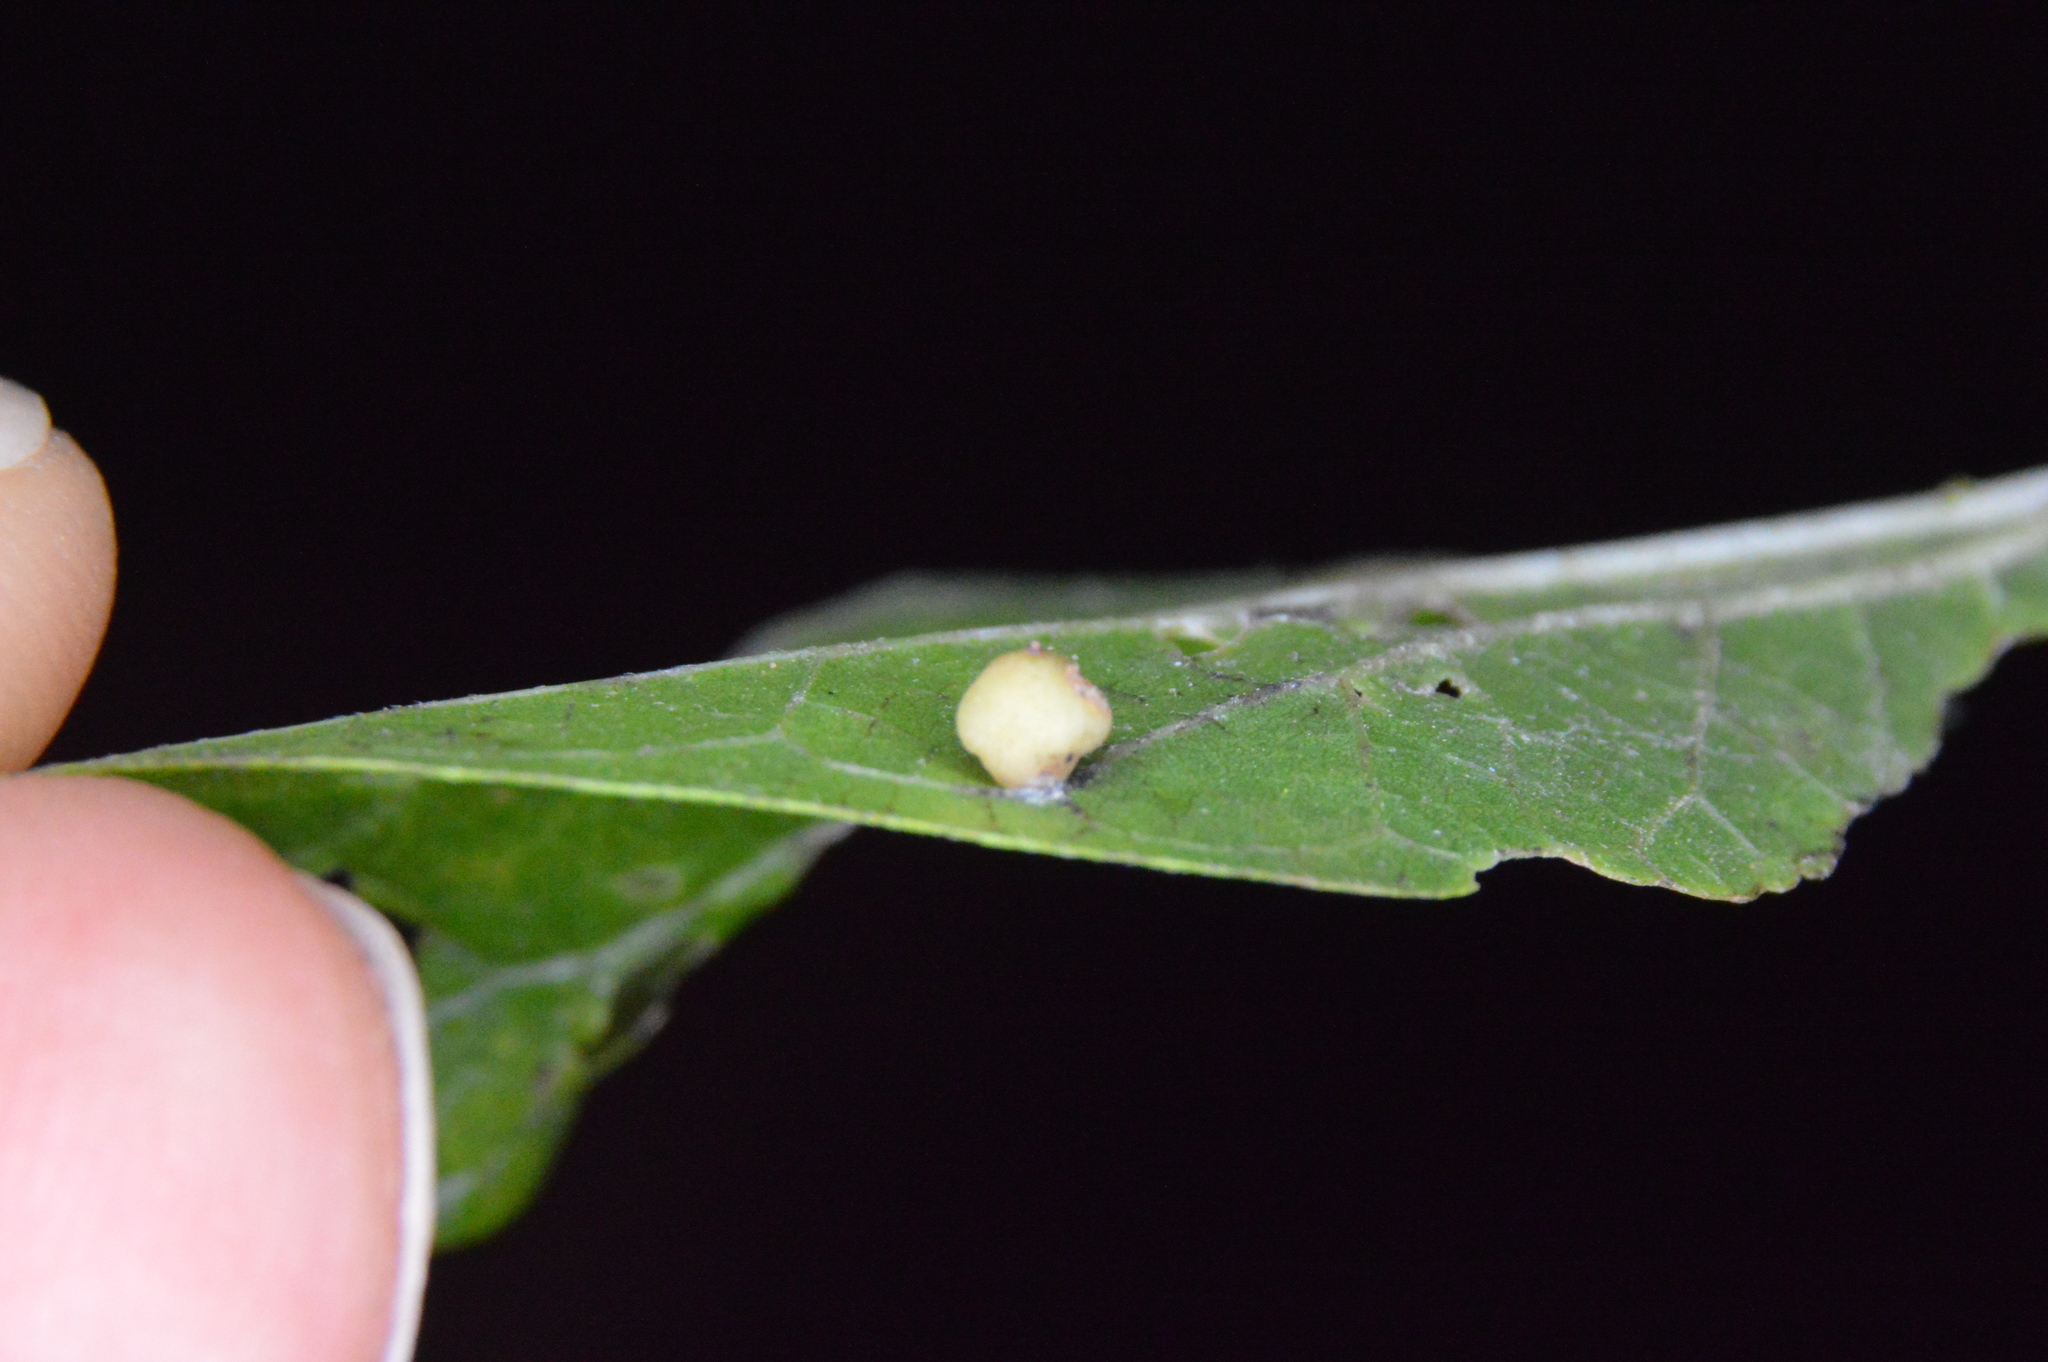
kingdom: Animalia
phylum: Arthropoda
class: Insecta
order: Diptera
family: Cecidomyiidae
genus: Celticecis
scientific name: Celticecis globosa
